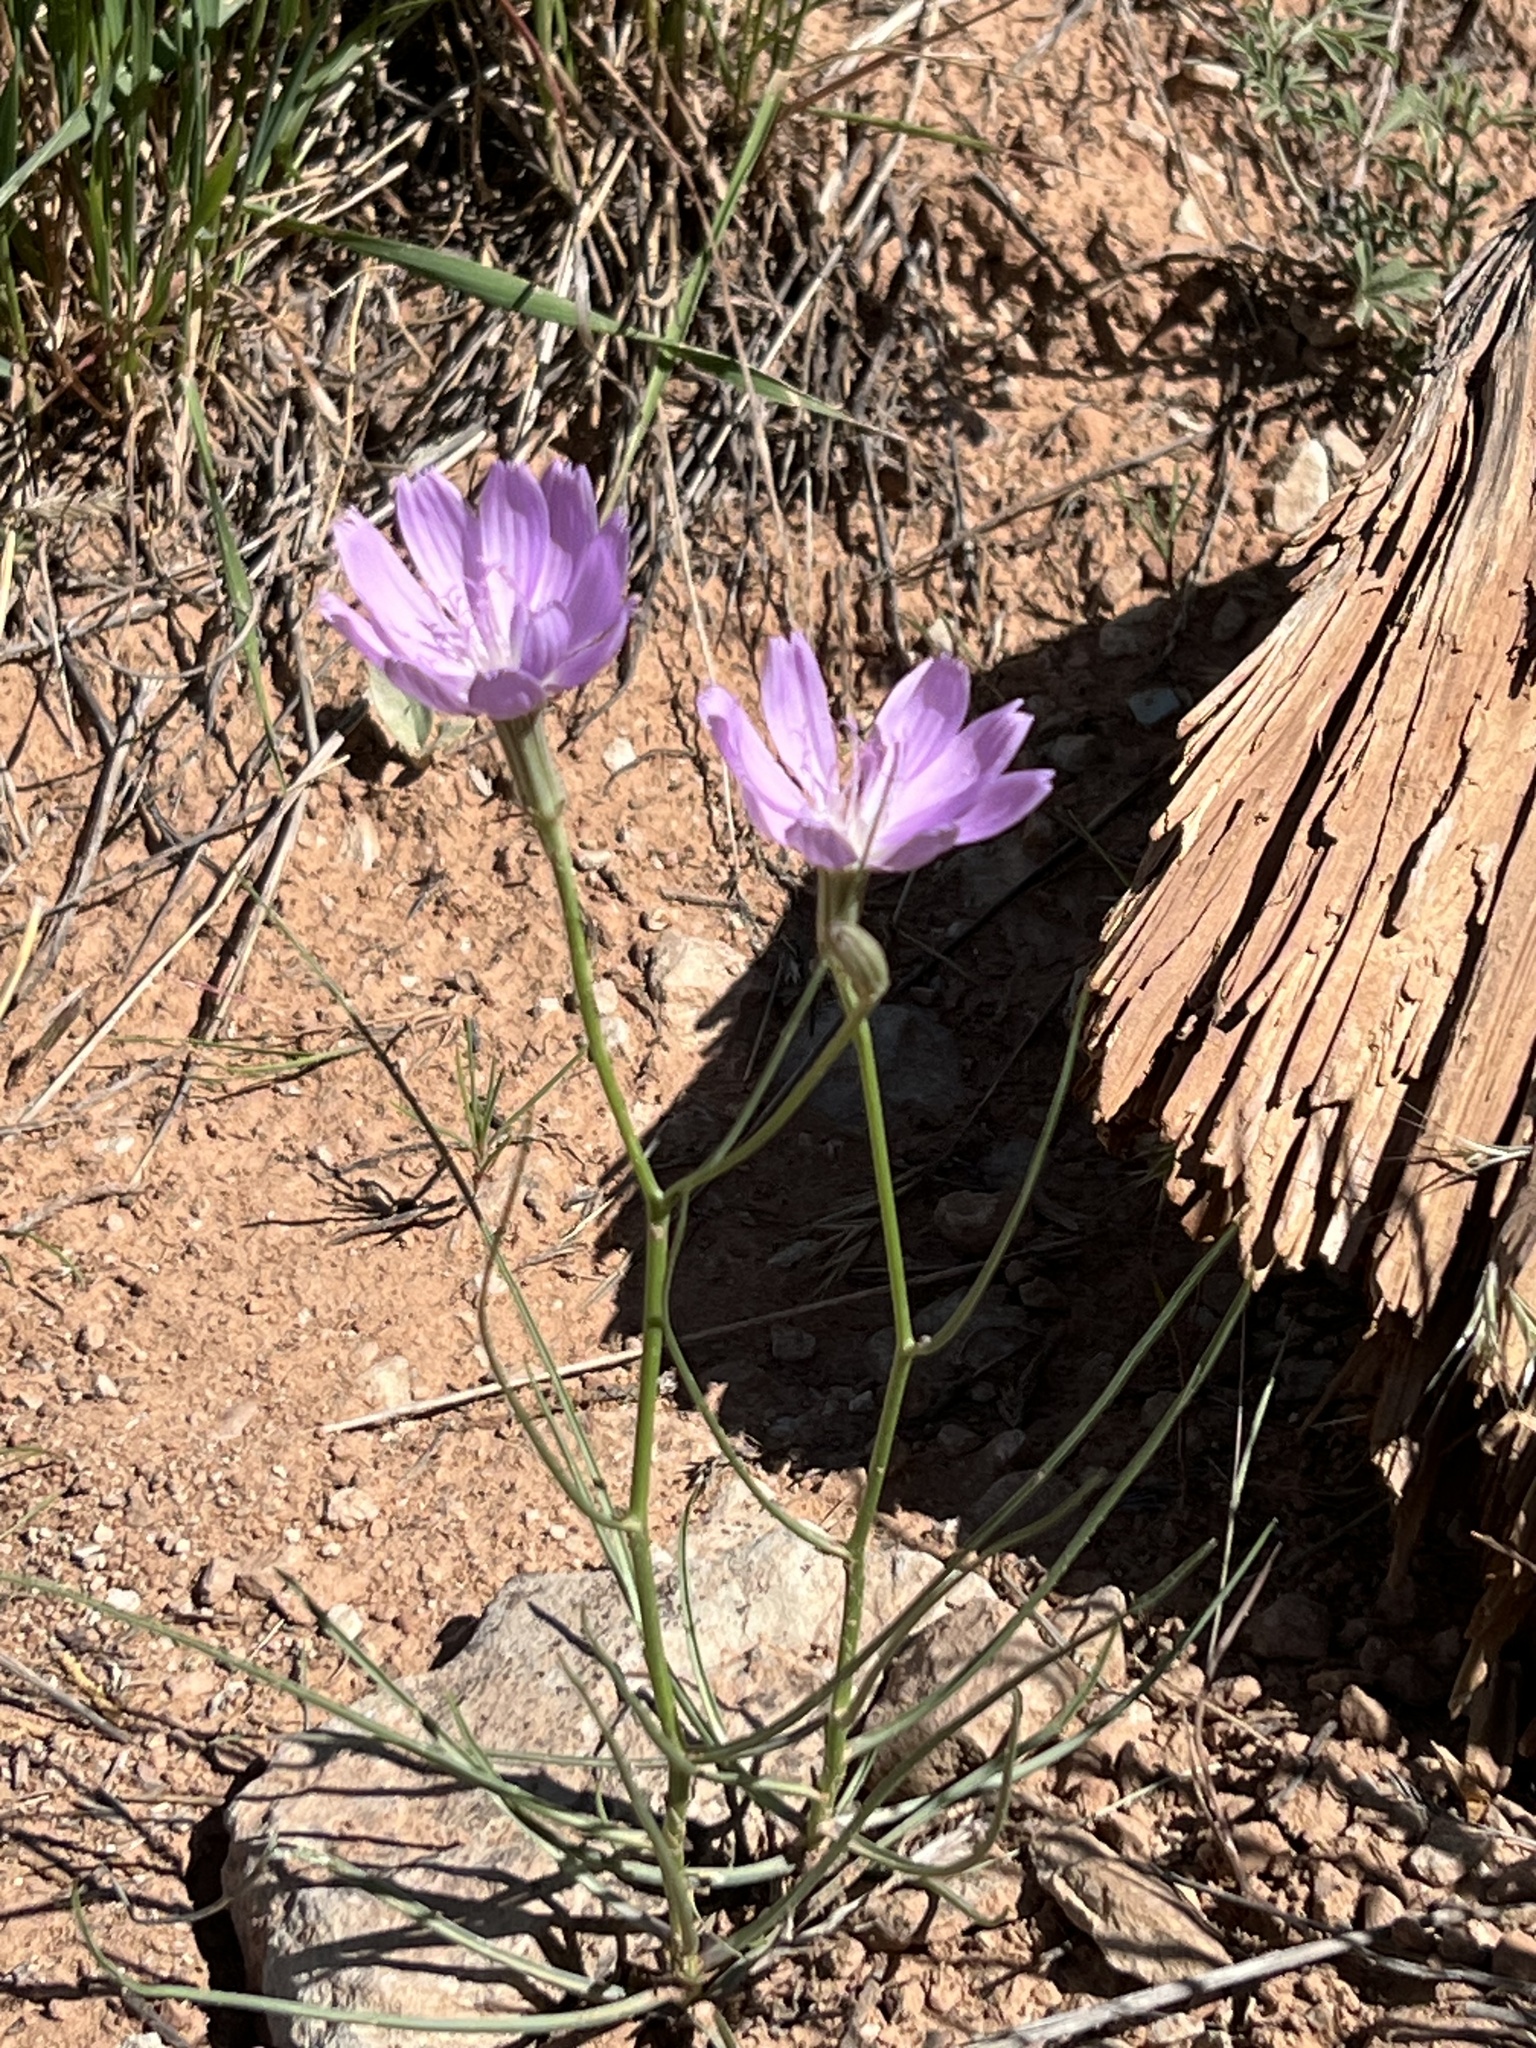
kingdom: Plantae
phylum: Tracheophyta
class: Magnoliopsida
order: Asterales
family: Asteraceae
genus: Lygodesmia
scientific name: Lygodesmia grandiflora
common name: Showy rush-pink
